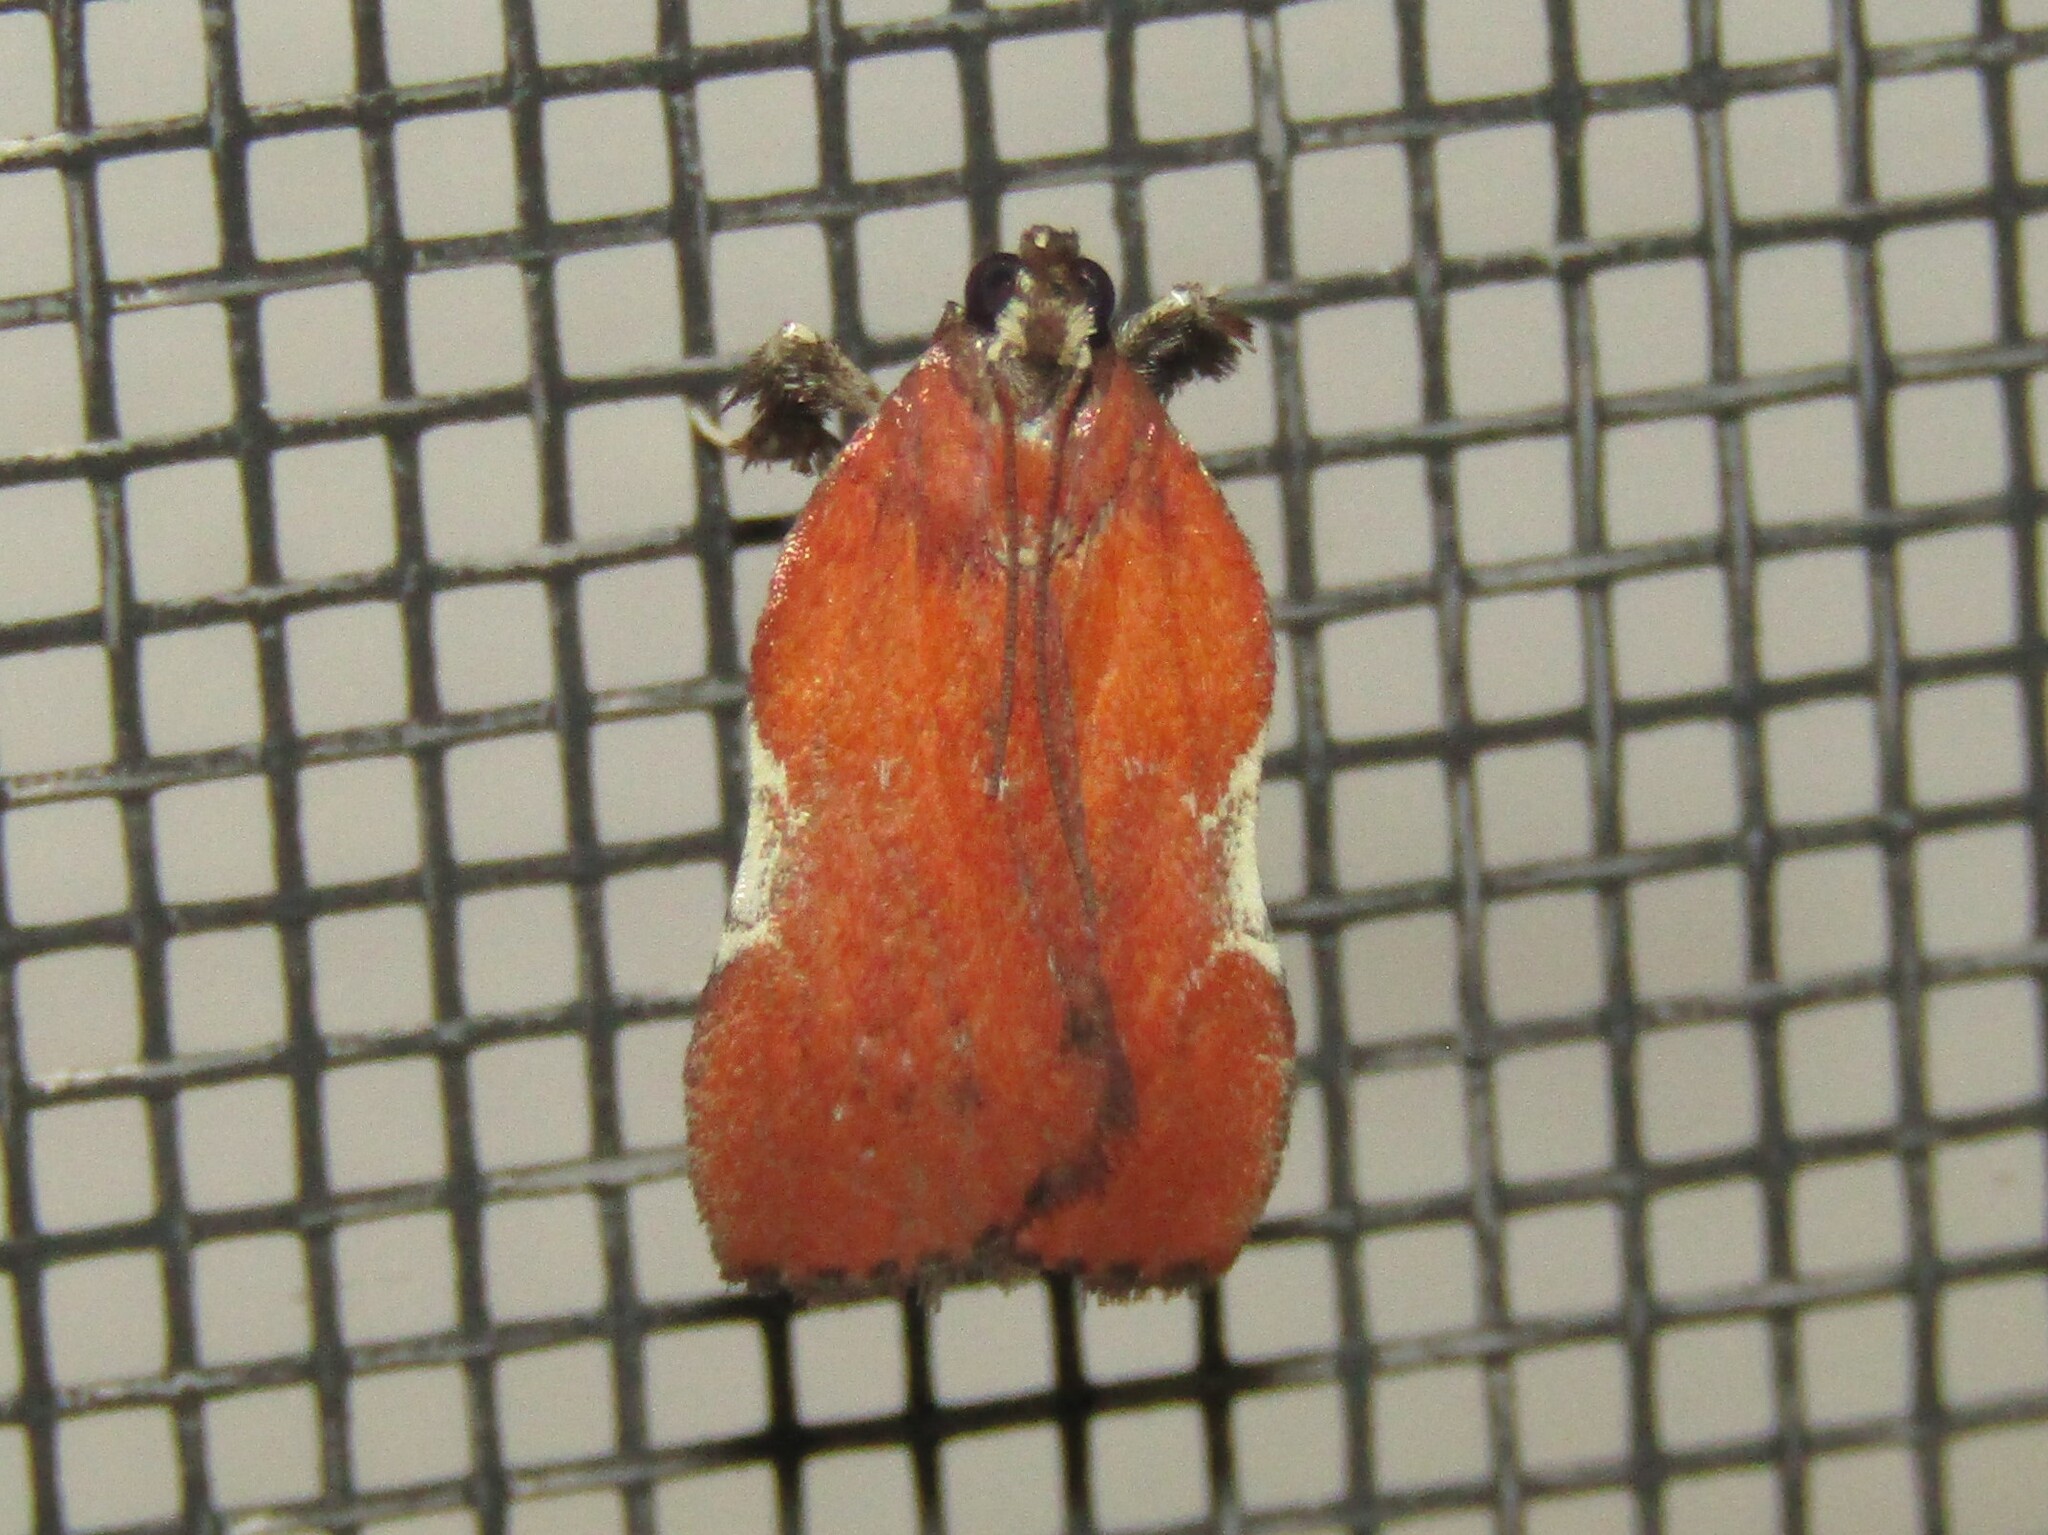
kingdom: Animalia
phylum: Arthropoda
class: Insecta
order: Lepidoptera
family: Pyralidae
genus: Galasa
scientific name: Galasa nigrinodis
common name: Boxwood leaftier moth
